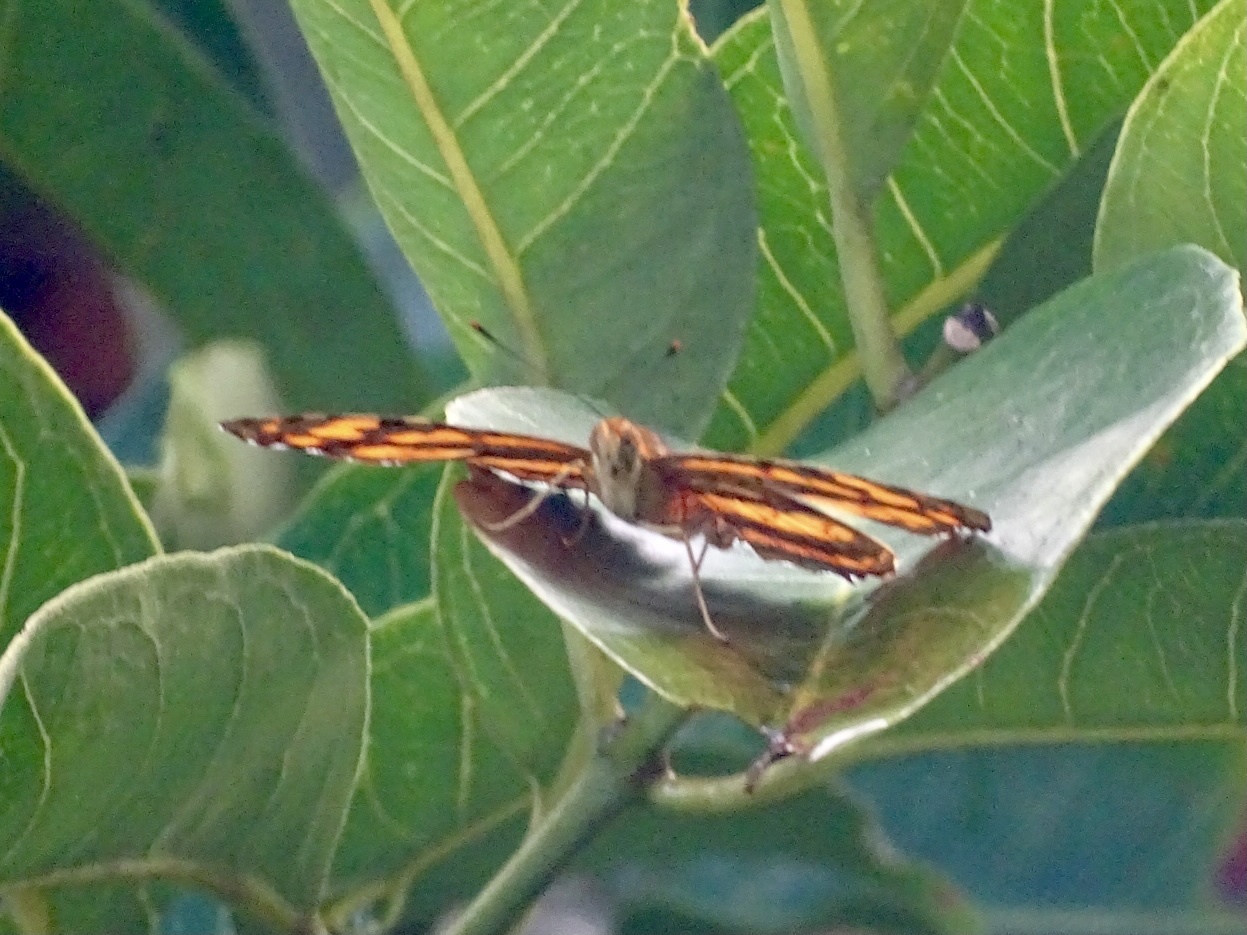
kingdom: Animalia
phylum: Arthropoda
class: Insecta
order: Lepidoptera
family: Nymphalidae
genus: Symbrenthia
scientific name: Symbrenthia hypselis
